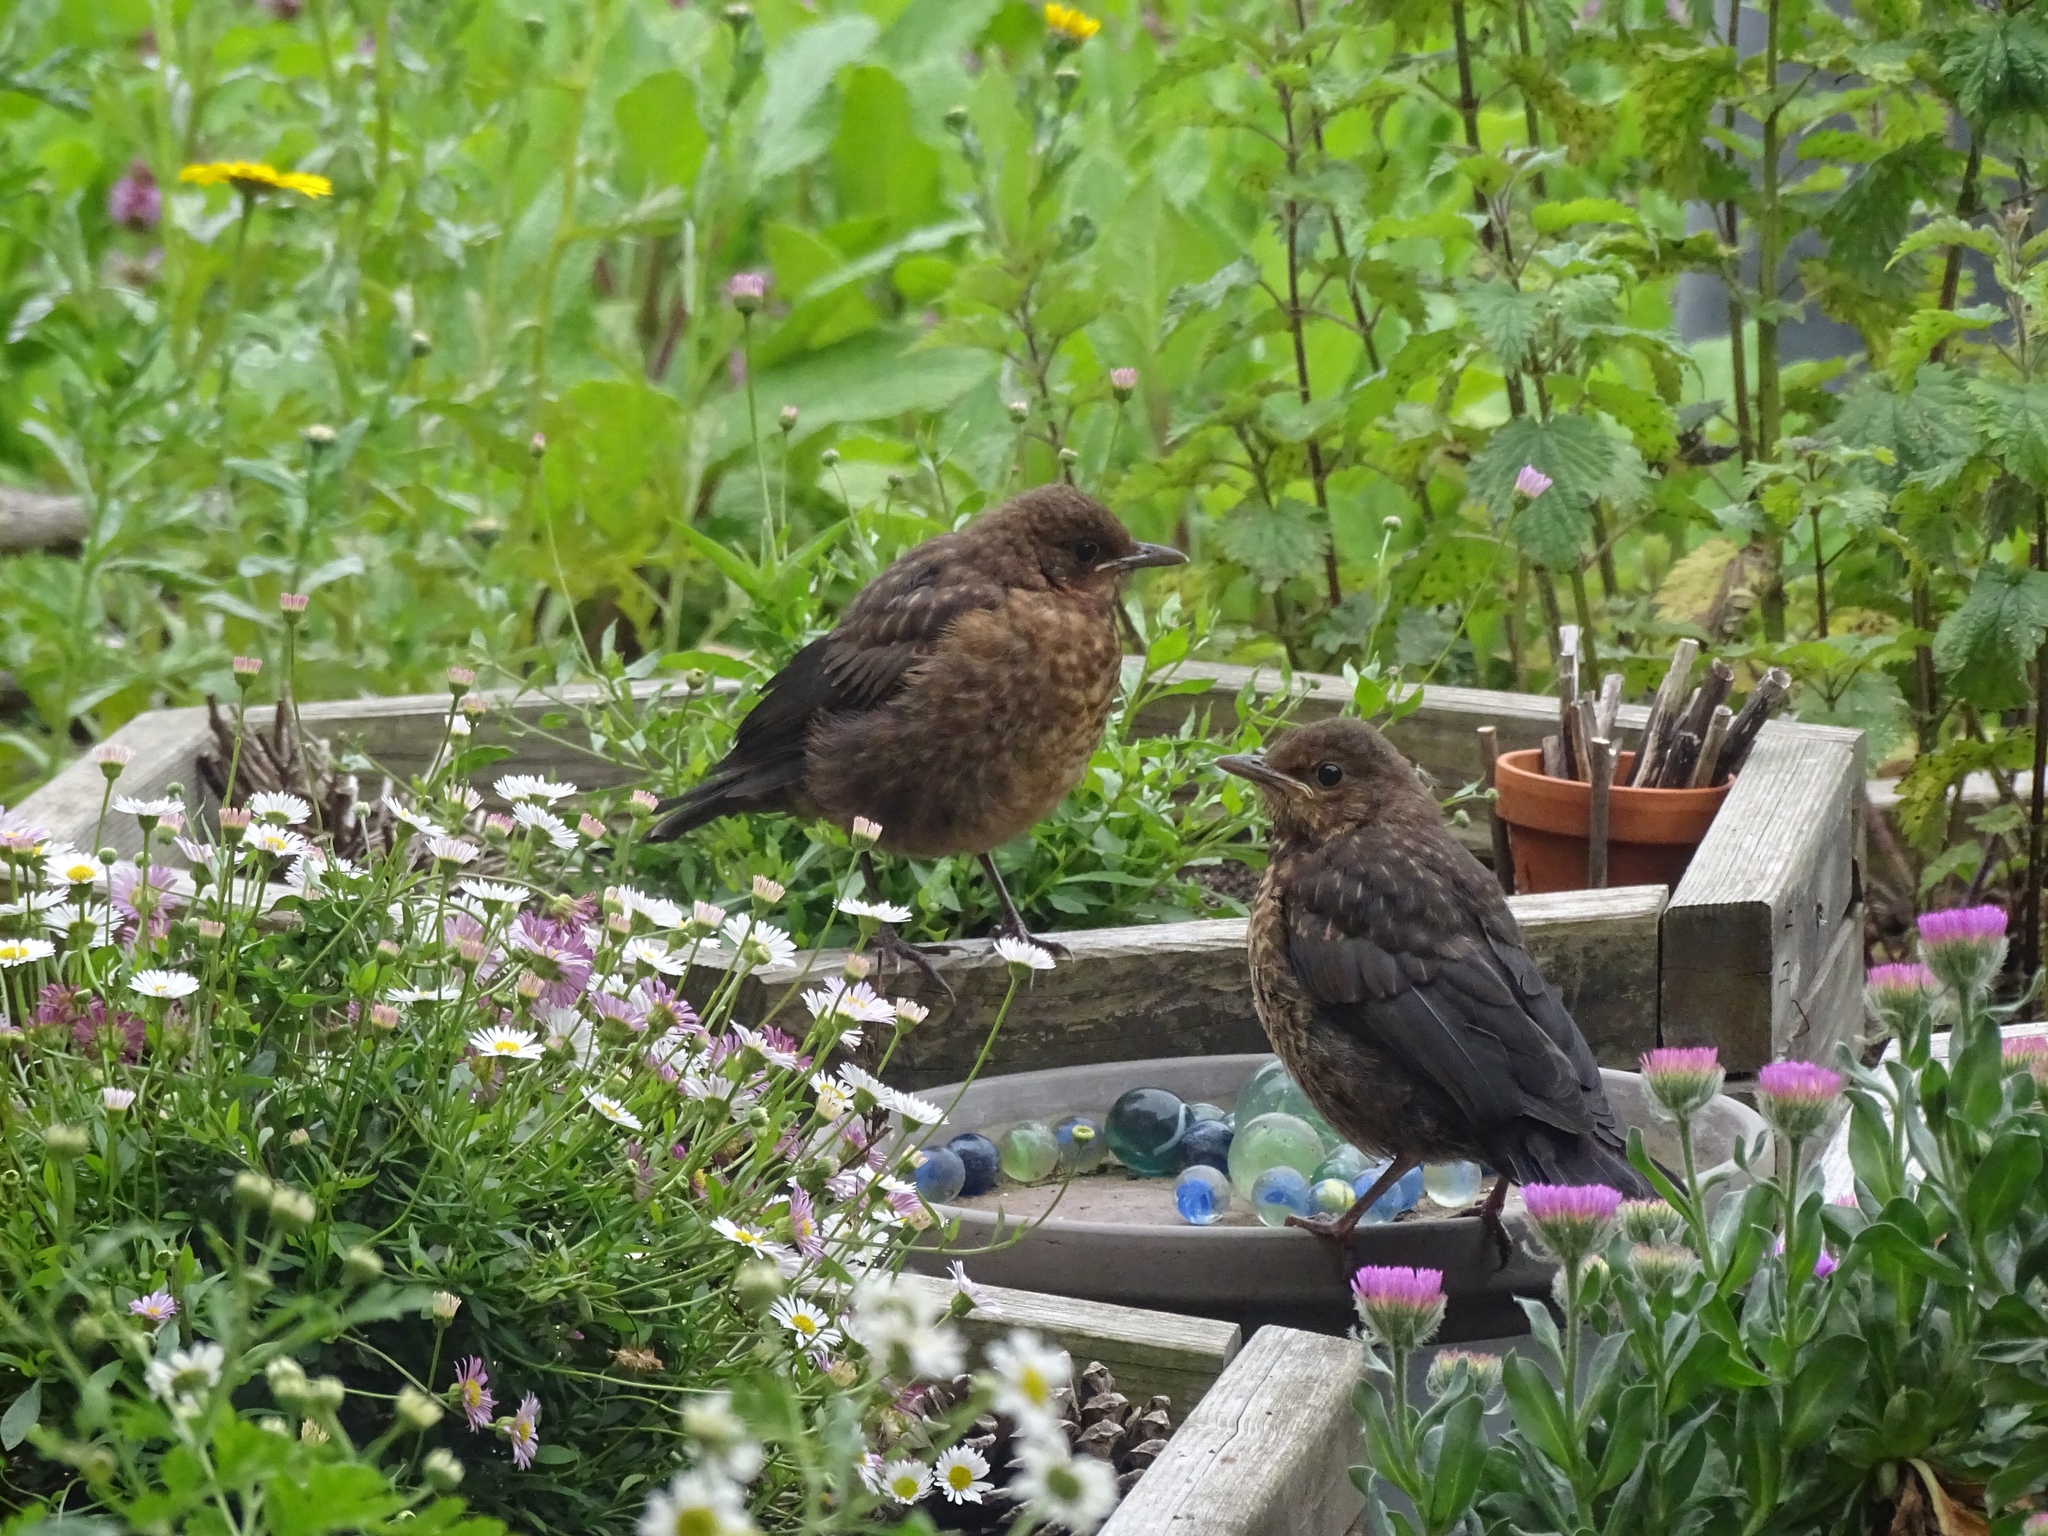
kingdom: Animalia
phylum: Chordata
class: Aves
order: Passeriformes
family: Turdidae
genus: Turdus
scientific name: Turdus merula
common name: Common blackbird
